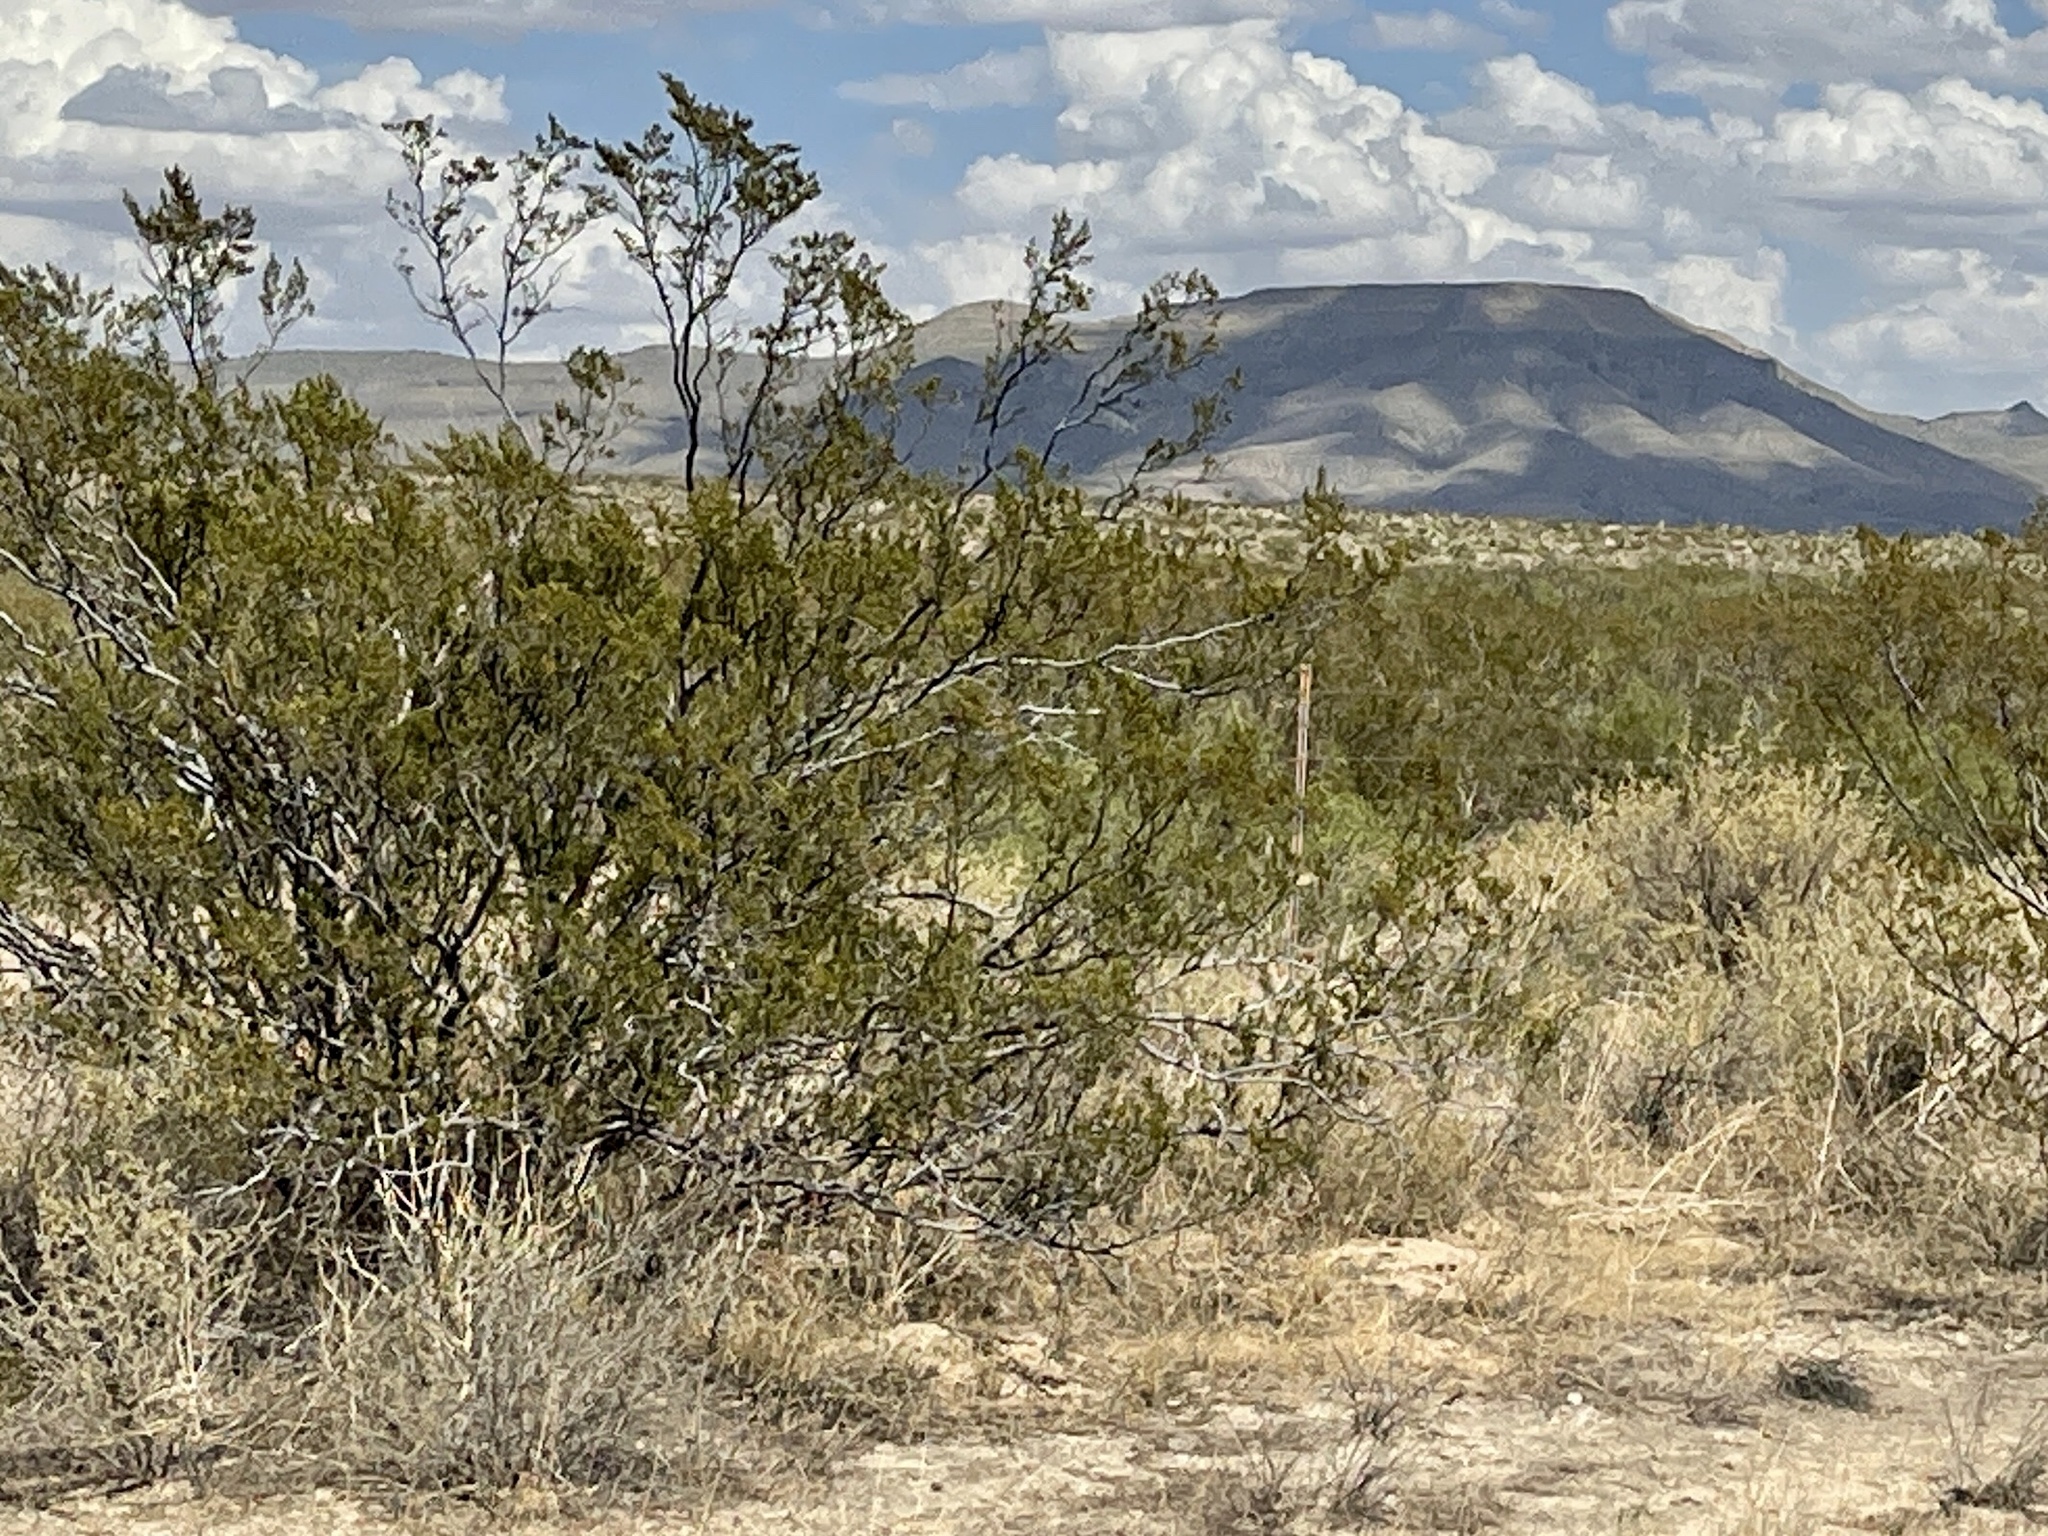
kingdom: Plantae
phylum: Tracheophyta
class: Magnoliopsida
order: Zygophyllales
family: Zygophyllaceae
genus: Larrea
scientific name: Larrea tridentata
